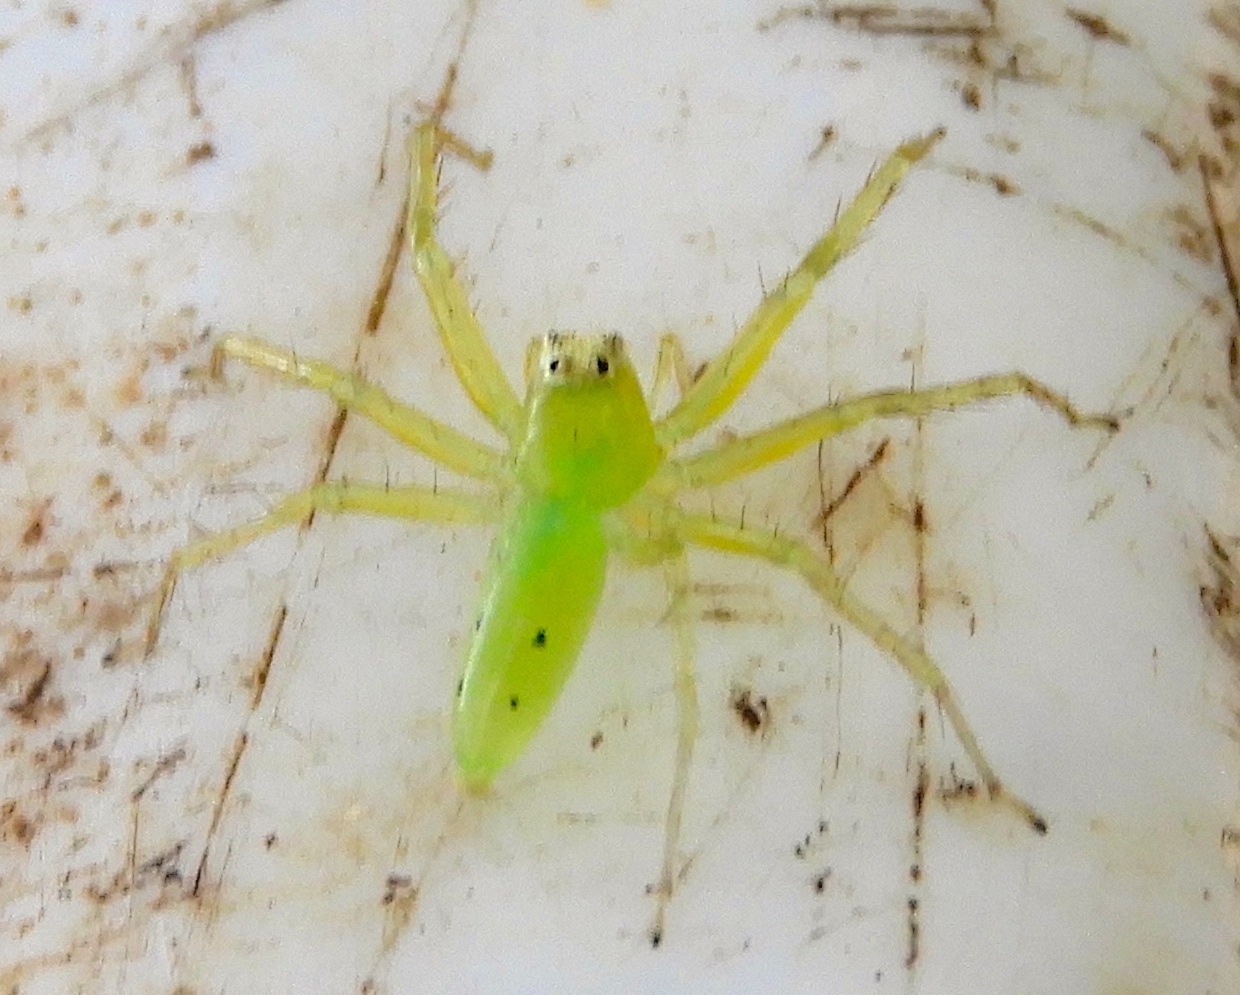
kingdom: Animalia
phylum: Arthropoda
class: Arachnida
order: Araneae
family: Salticidae
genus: Lyssomanes
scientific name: Lyssomanes
